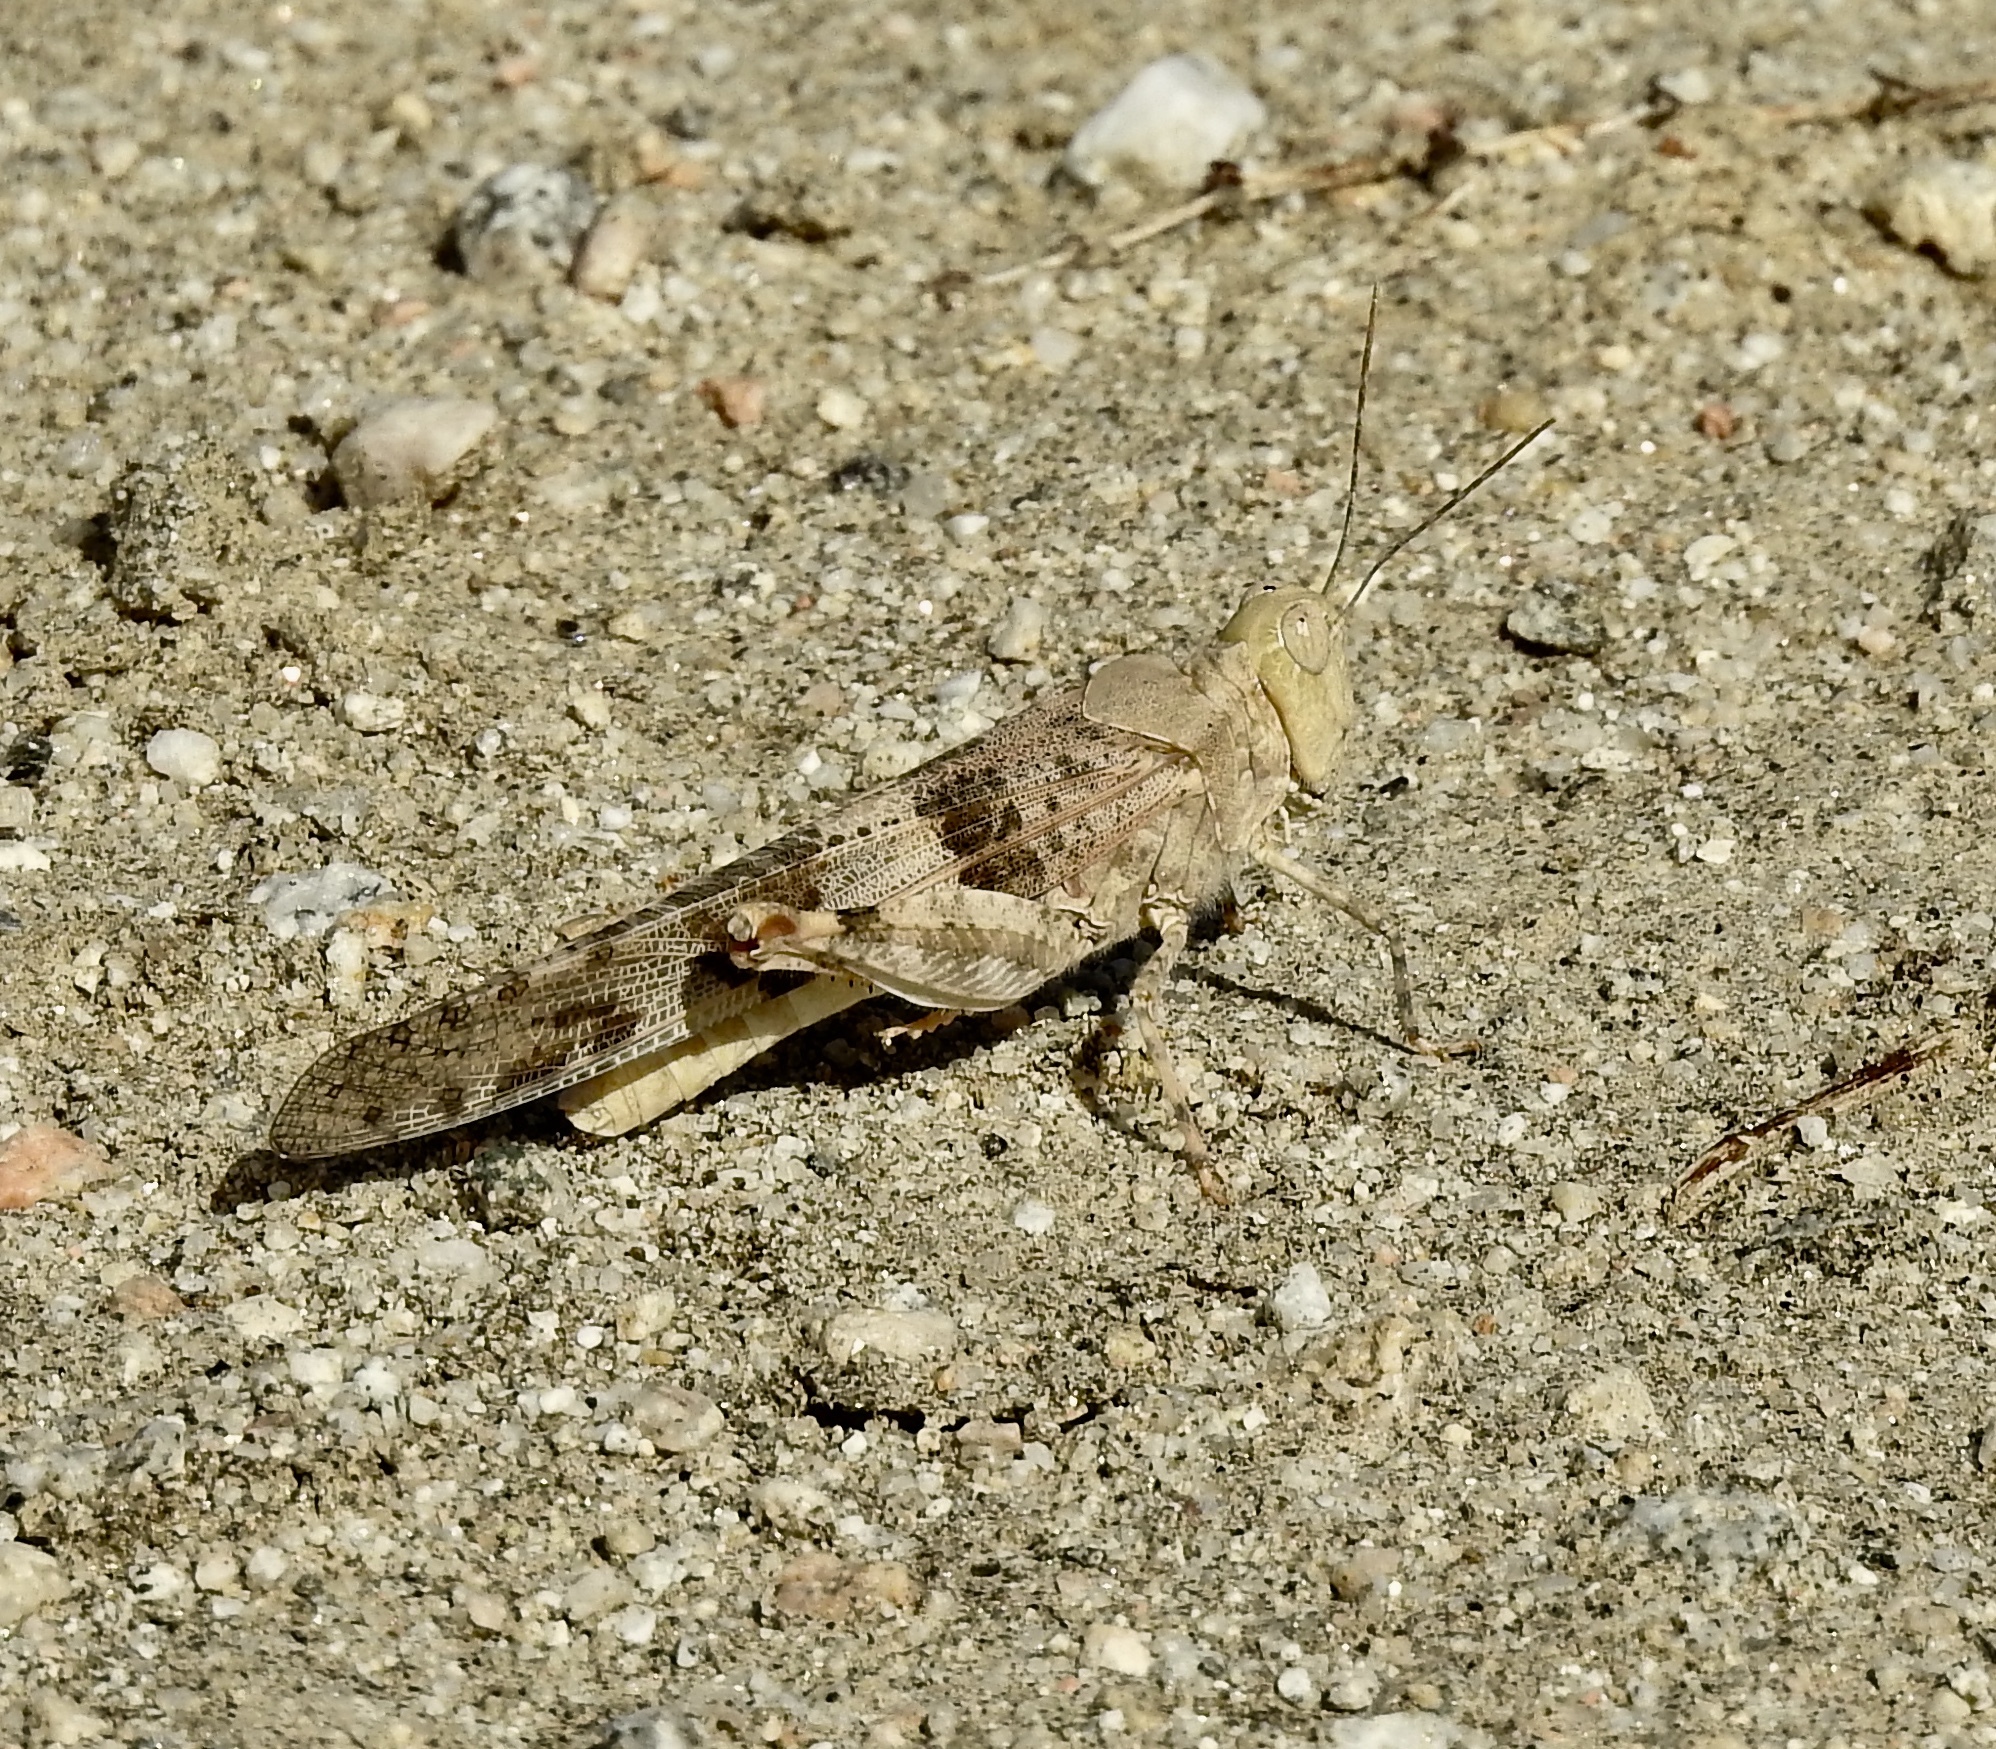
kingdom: Animalia
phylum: Arthropoda
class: Insecta
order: Orthoptera
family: Acrididae
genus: Trimerotropis
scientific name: Trimerotropis pallidipennis
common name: Pallid-winged grasshopper
